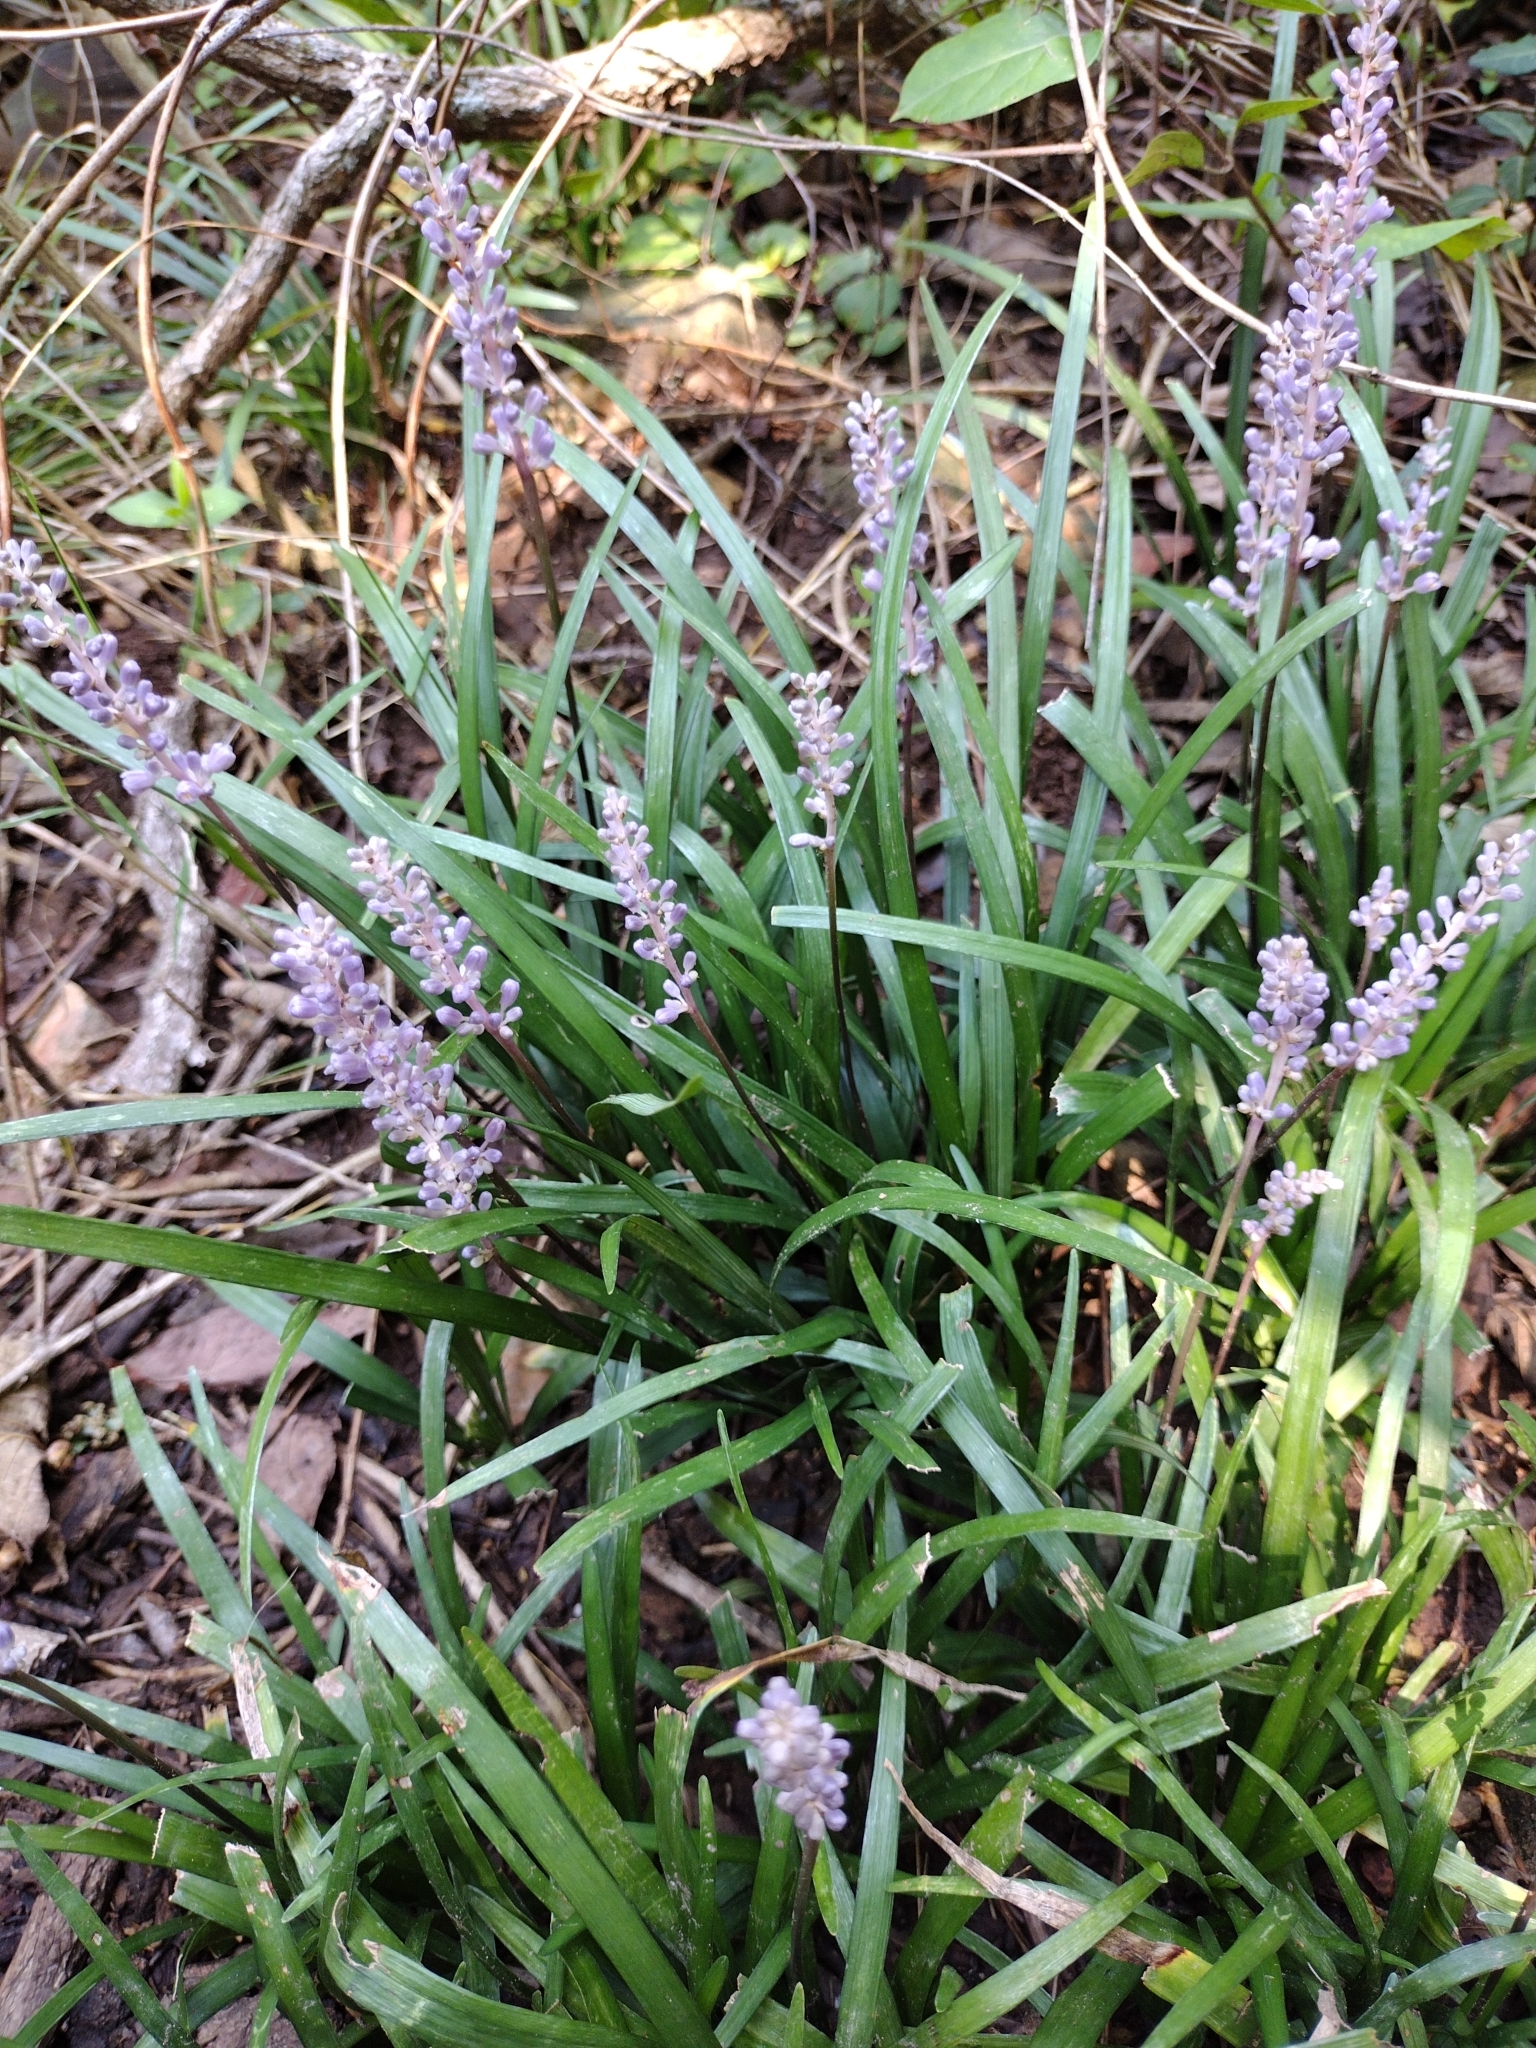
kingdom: Plantae
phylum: Tracheophyta
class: Liliopsida
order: Asparagales
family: Asparagaceae
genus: Liriope
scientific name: Liriope muscari
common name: Big blue lilyturf
